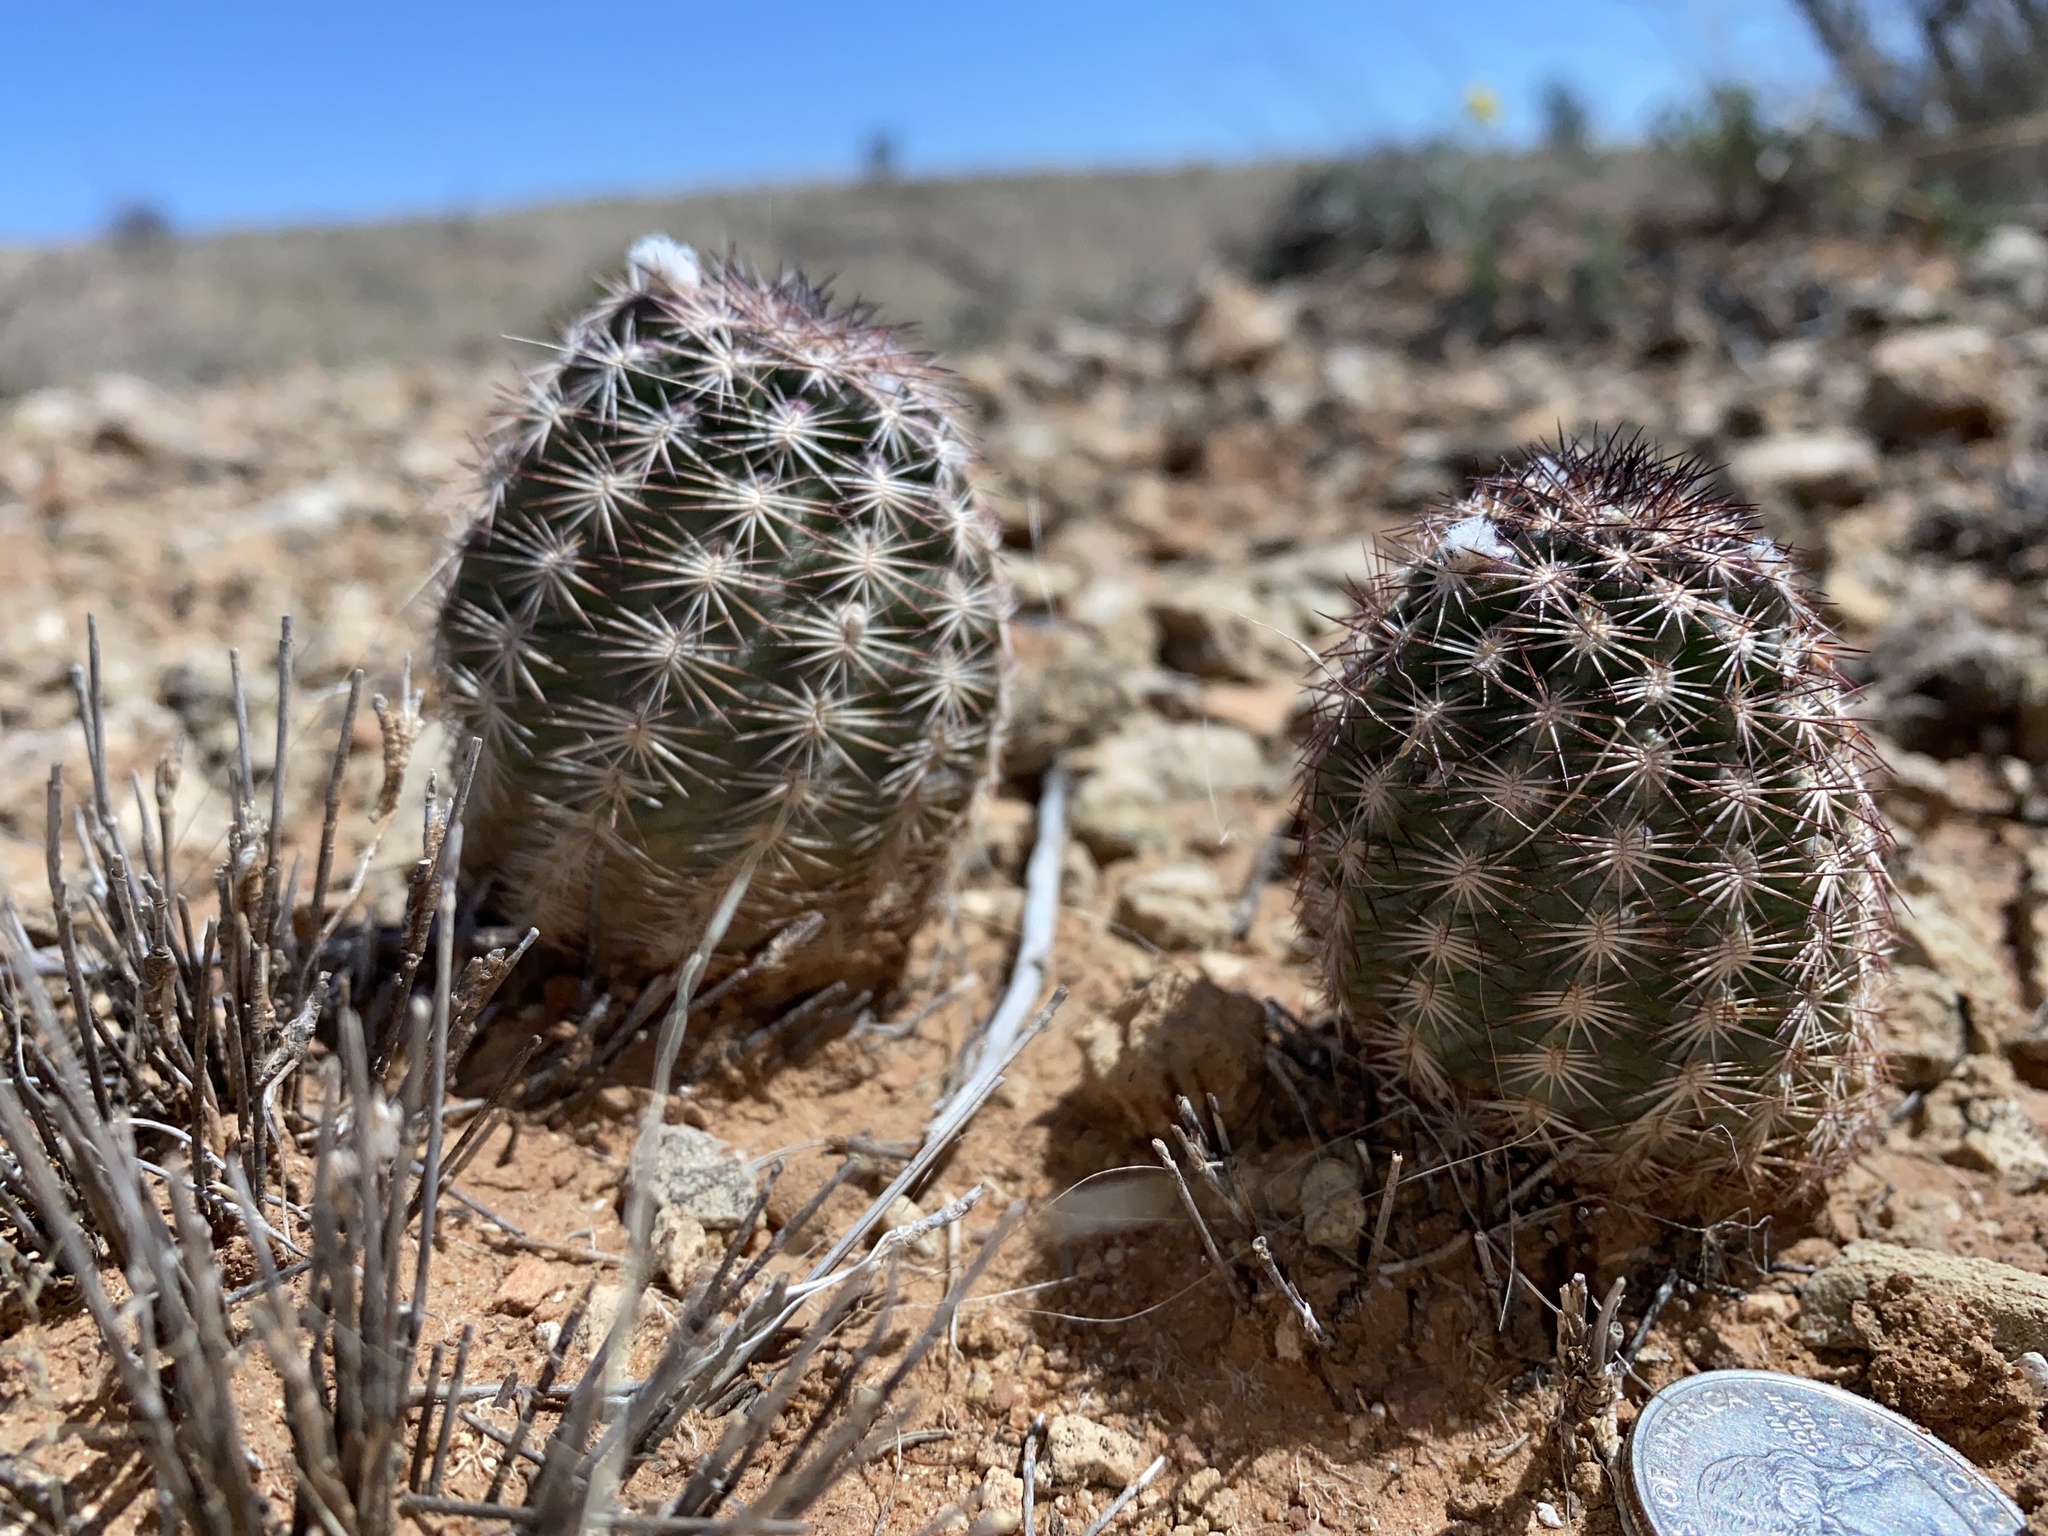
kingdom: Plantae
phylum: Tracheophyta
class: Magnoliopsida
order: Caryophyllales
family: Cactaceae
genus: Echinocereus
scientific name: Echinocereus reichenbachii
